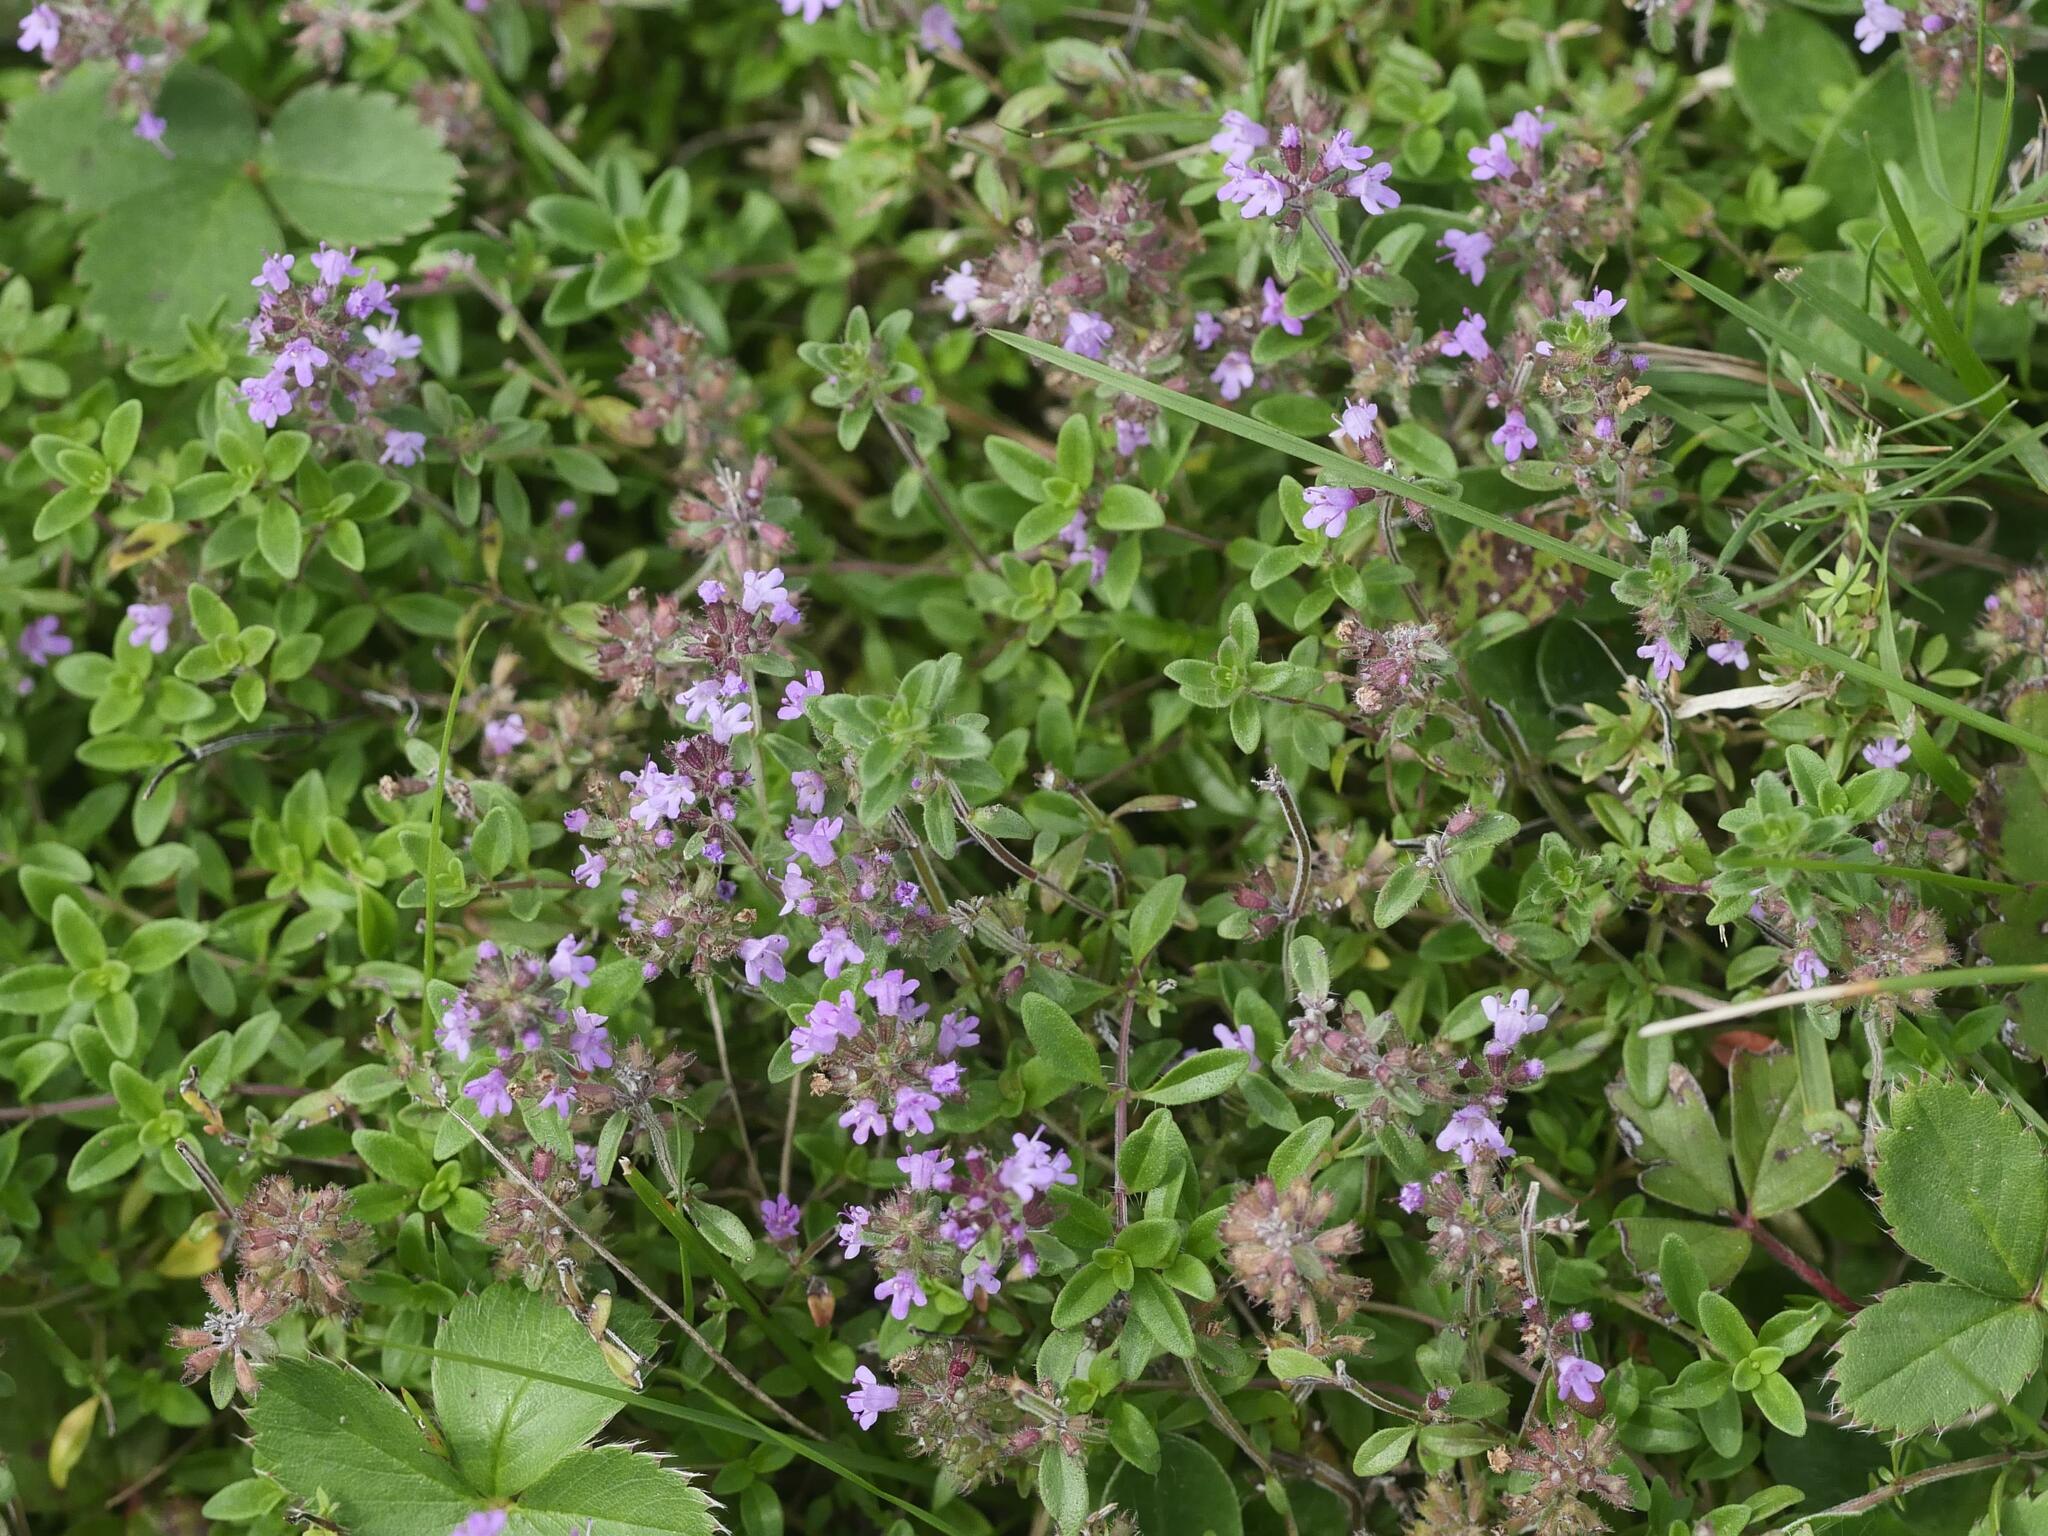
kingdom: Plantae
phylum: Tracheophyta
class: Magnoliopsida
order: Lamiales
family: Lamiaceae
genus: Thymus
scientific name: Thymus pulegioides
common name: Large thyme
